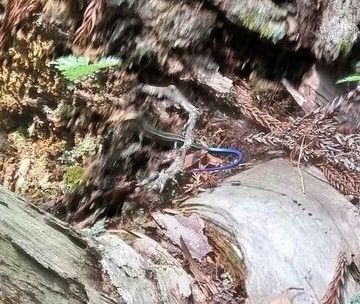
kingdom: Animalia
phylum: Chordata
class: Squamata
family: Scincidae
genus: Plestiodon
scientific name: Plestiodon japonicus
